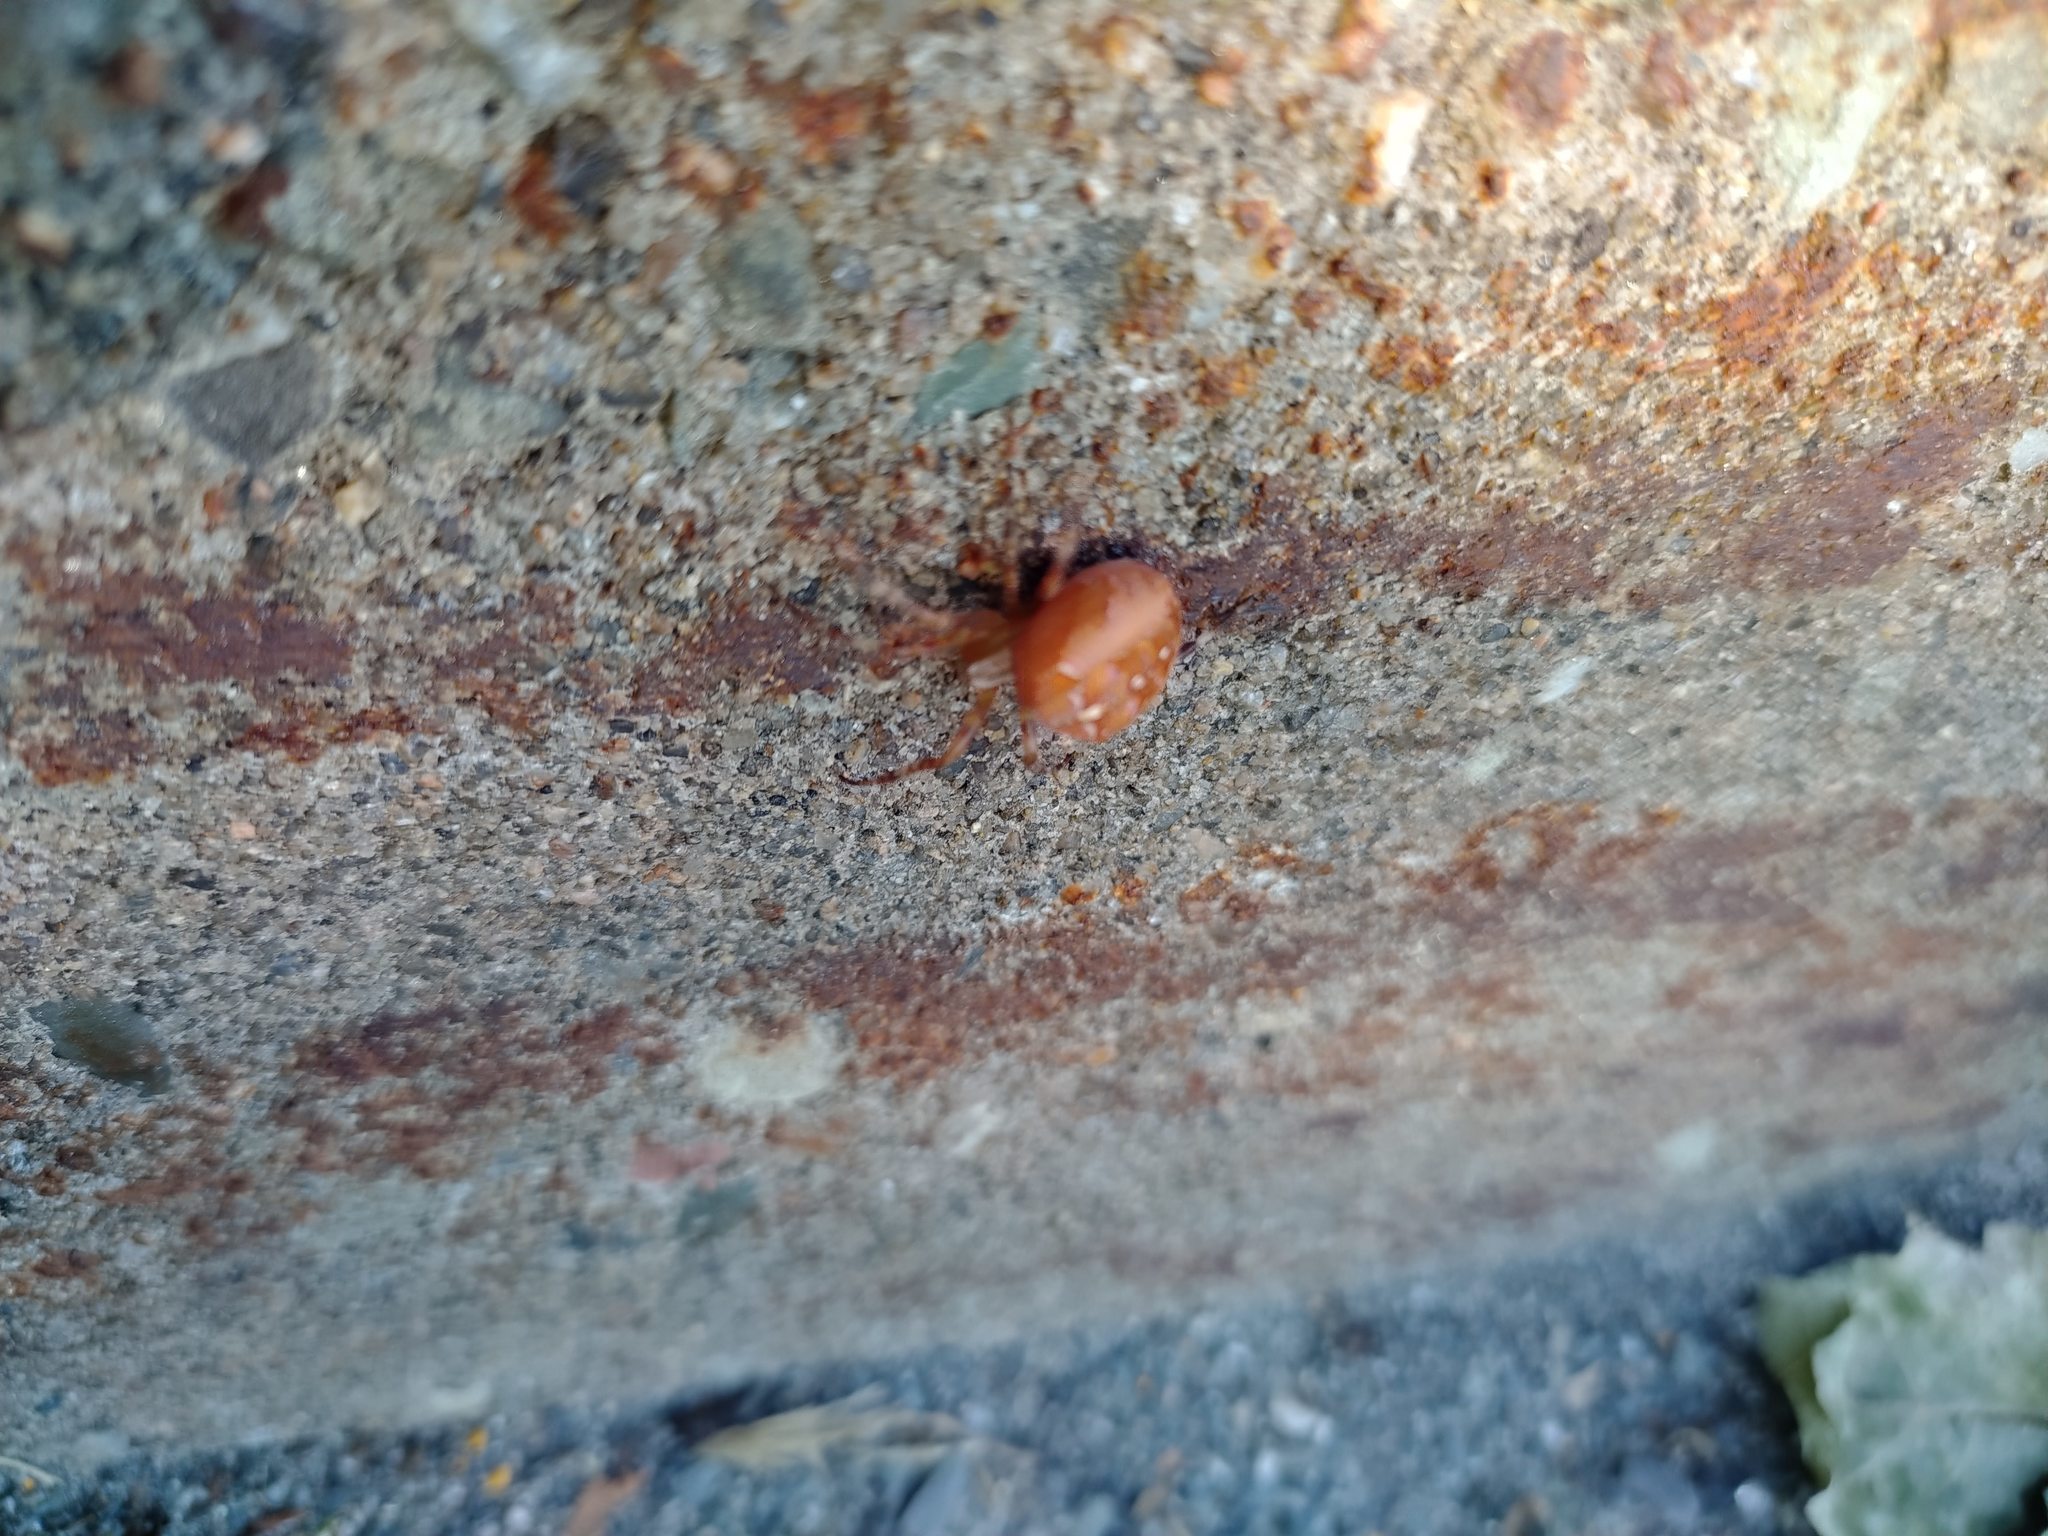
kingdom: Animalia
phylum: Arthropoda
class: Arachnida
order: Araneae
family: Araneidae
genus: Araneus
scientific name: Araneus diadematus
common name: Cross orbweaver
